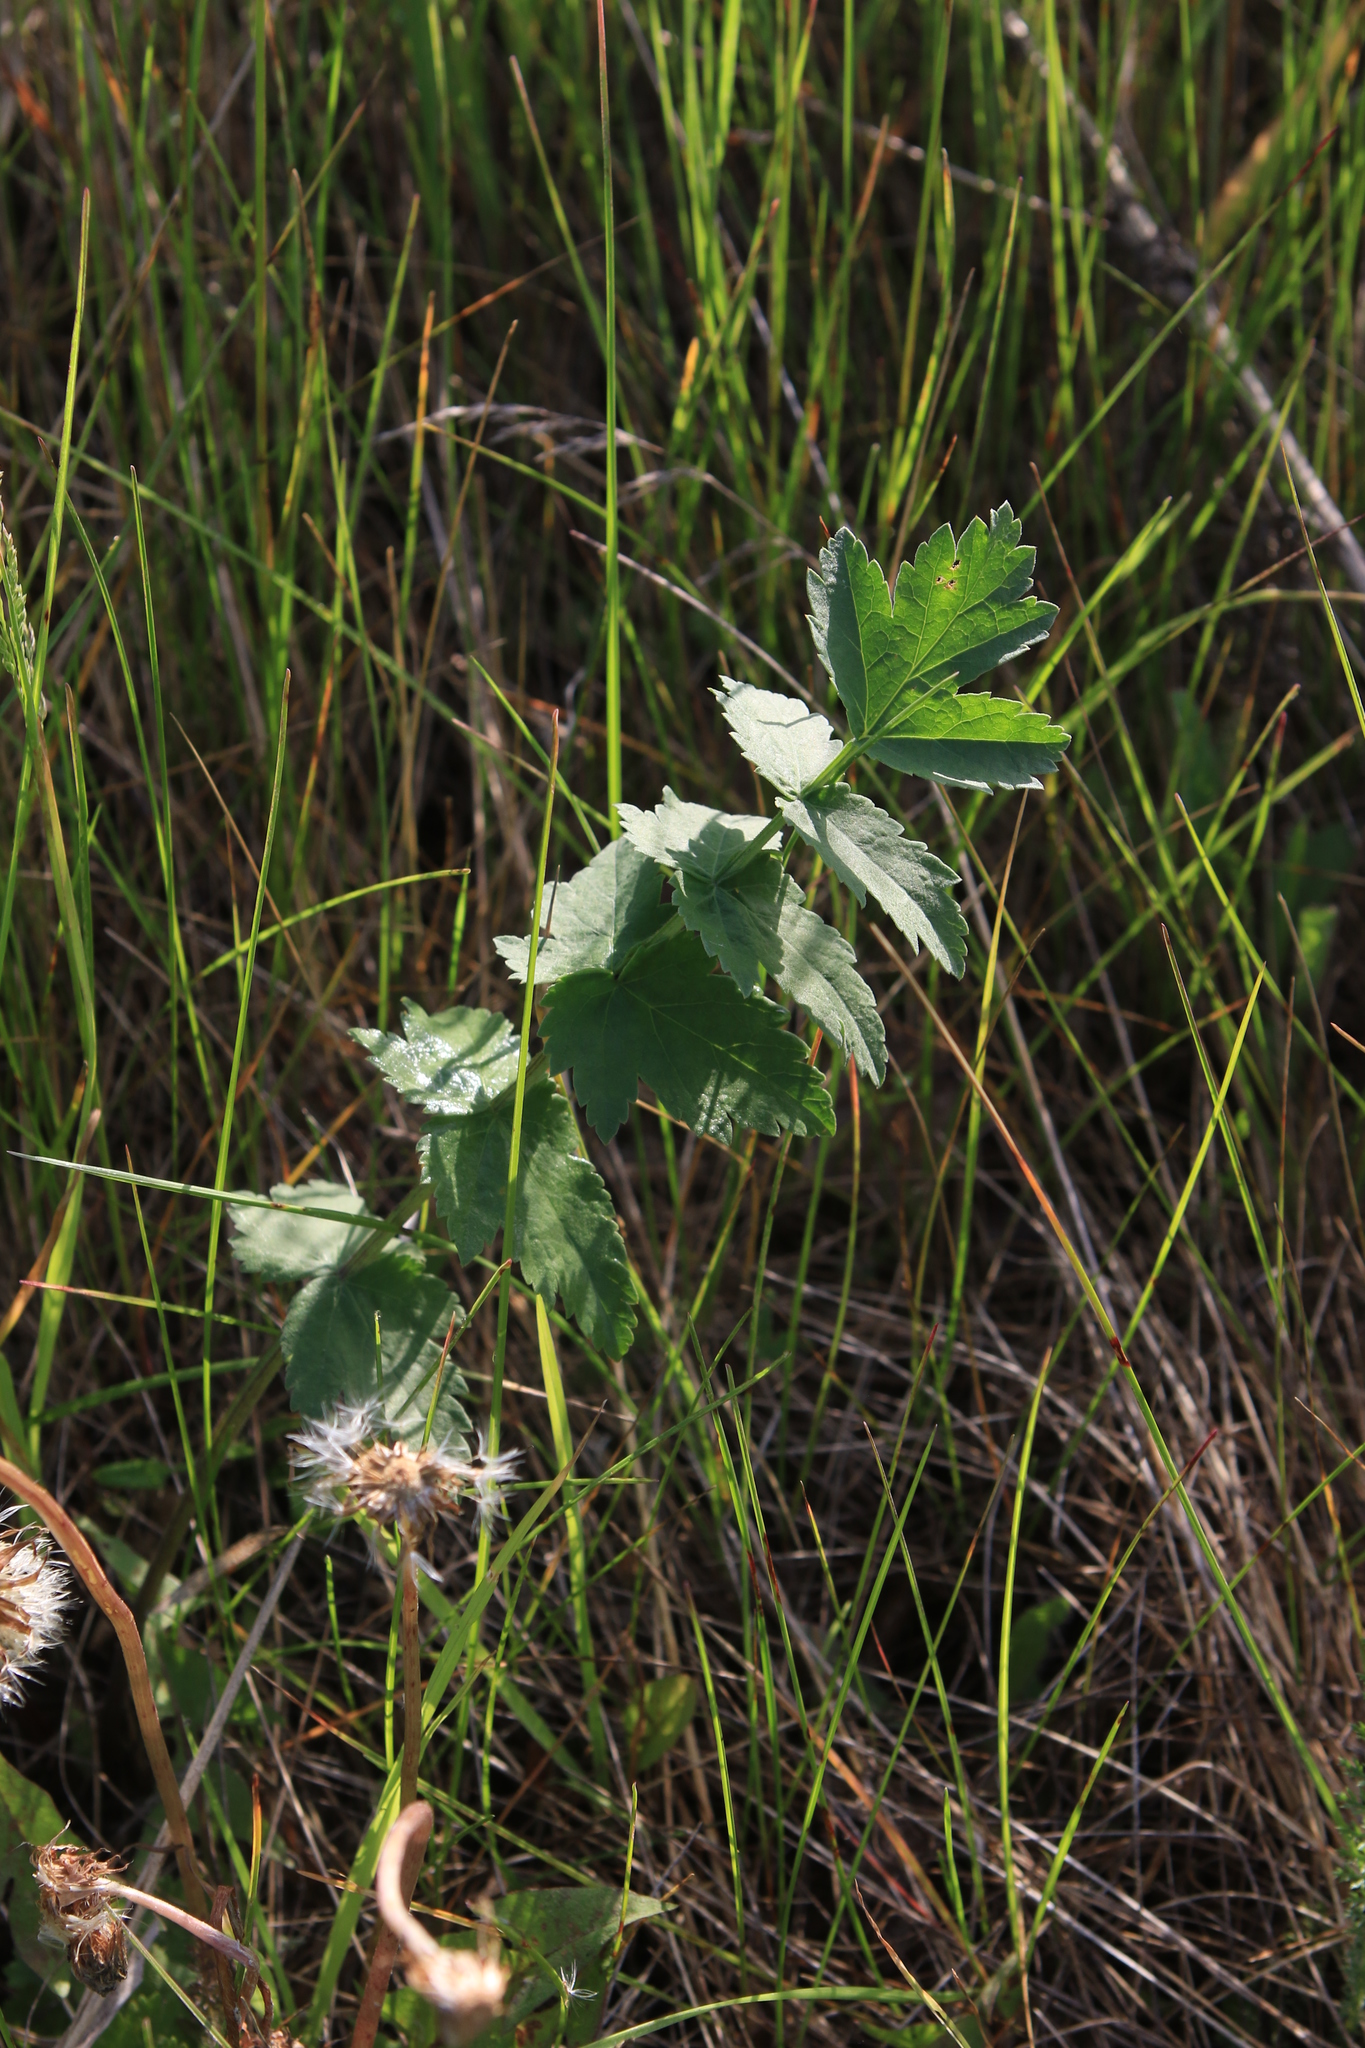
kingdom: Plantae
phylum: Tracheophyta
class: Magnoliopsida
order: Apiales
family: Apiaceae
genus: Pastinaca
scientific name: Pastinaca sativa
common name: Wild parsnip
